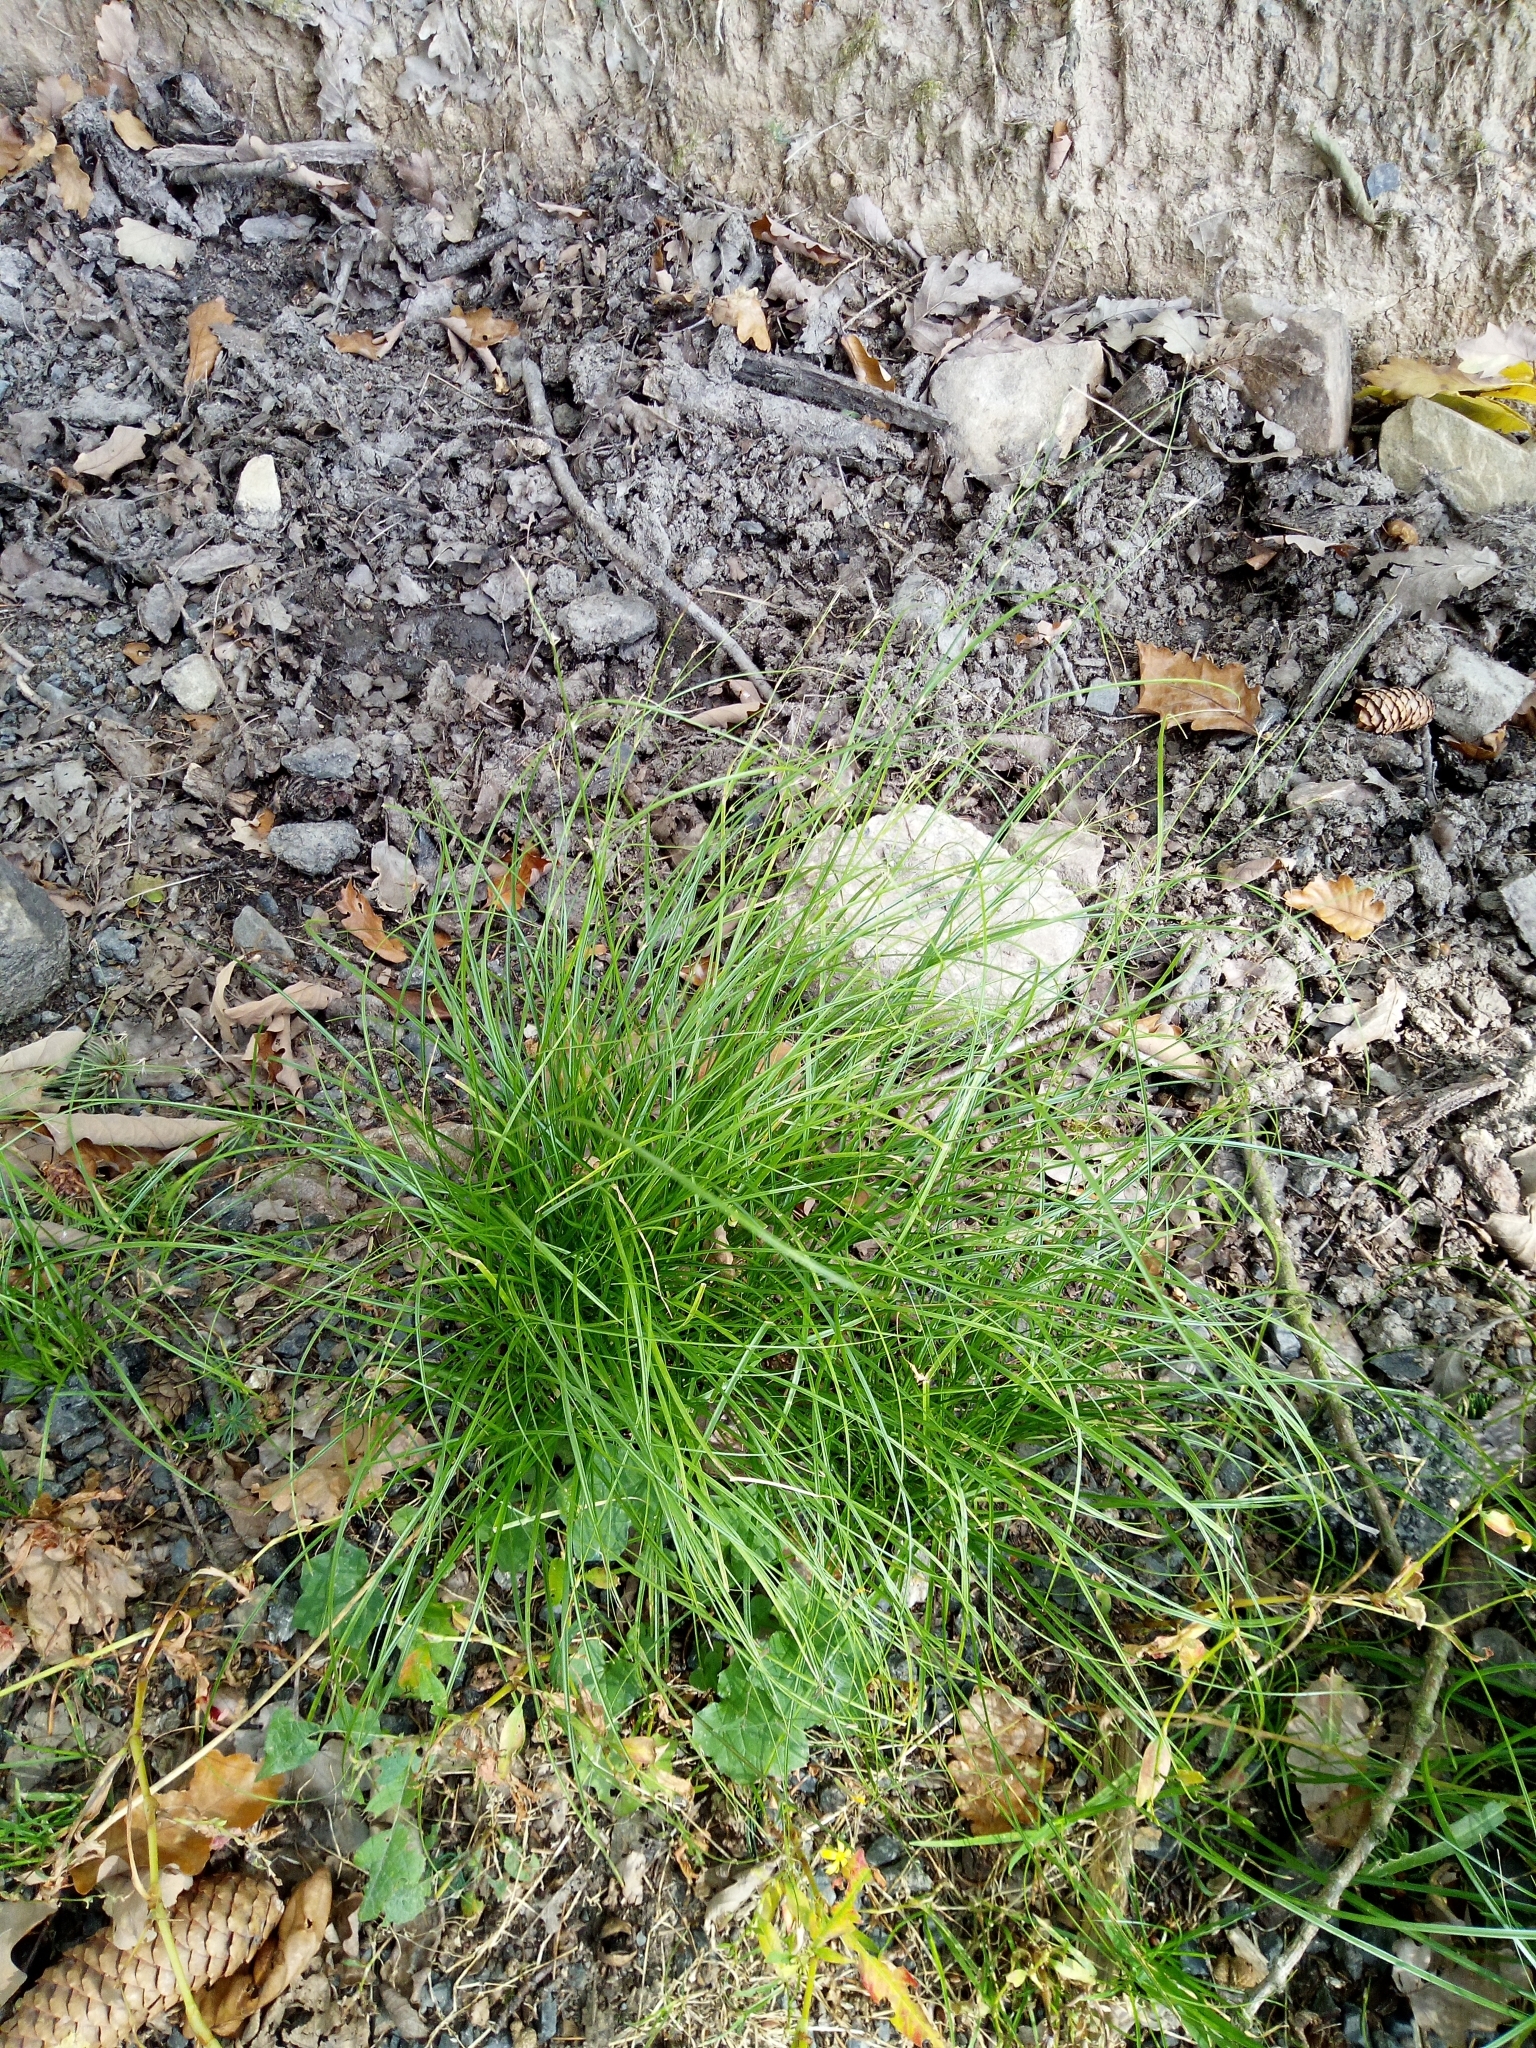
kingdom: Plantae
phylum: Tracheophyta
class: Liliopsida
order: Poales
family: Cyperaceae
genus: Carex
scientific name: Carex remota
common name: Remote sedge
